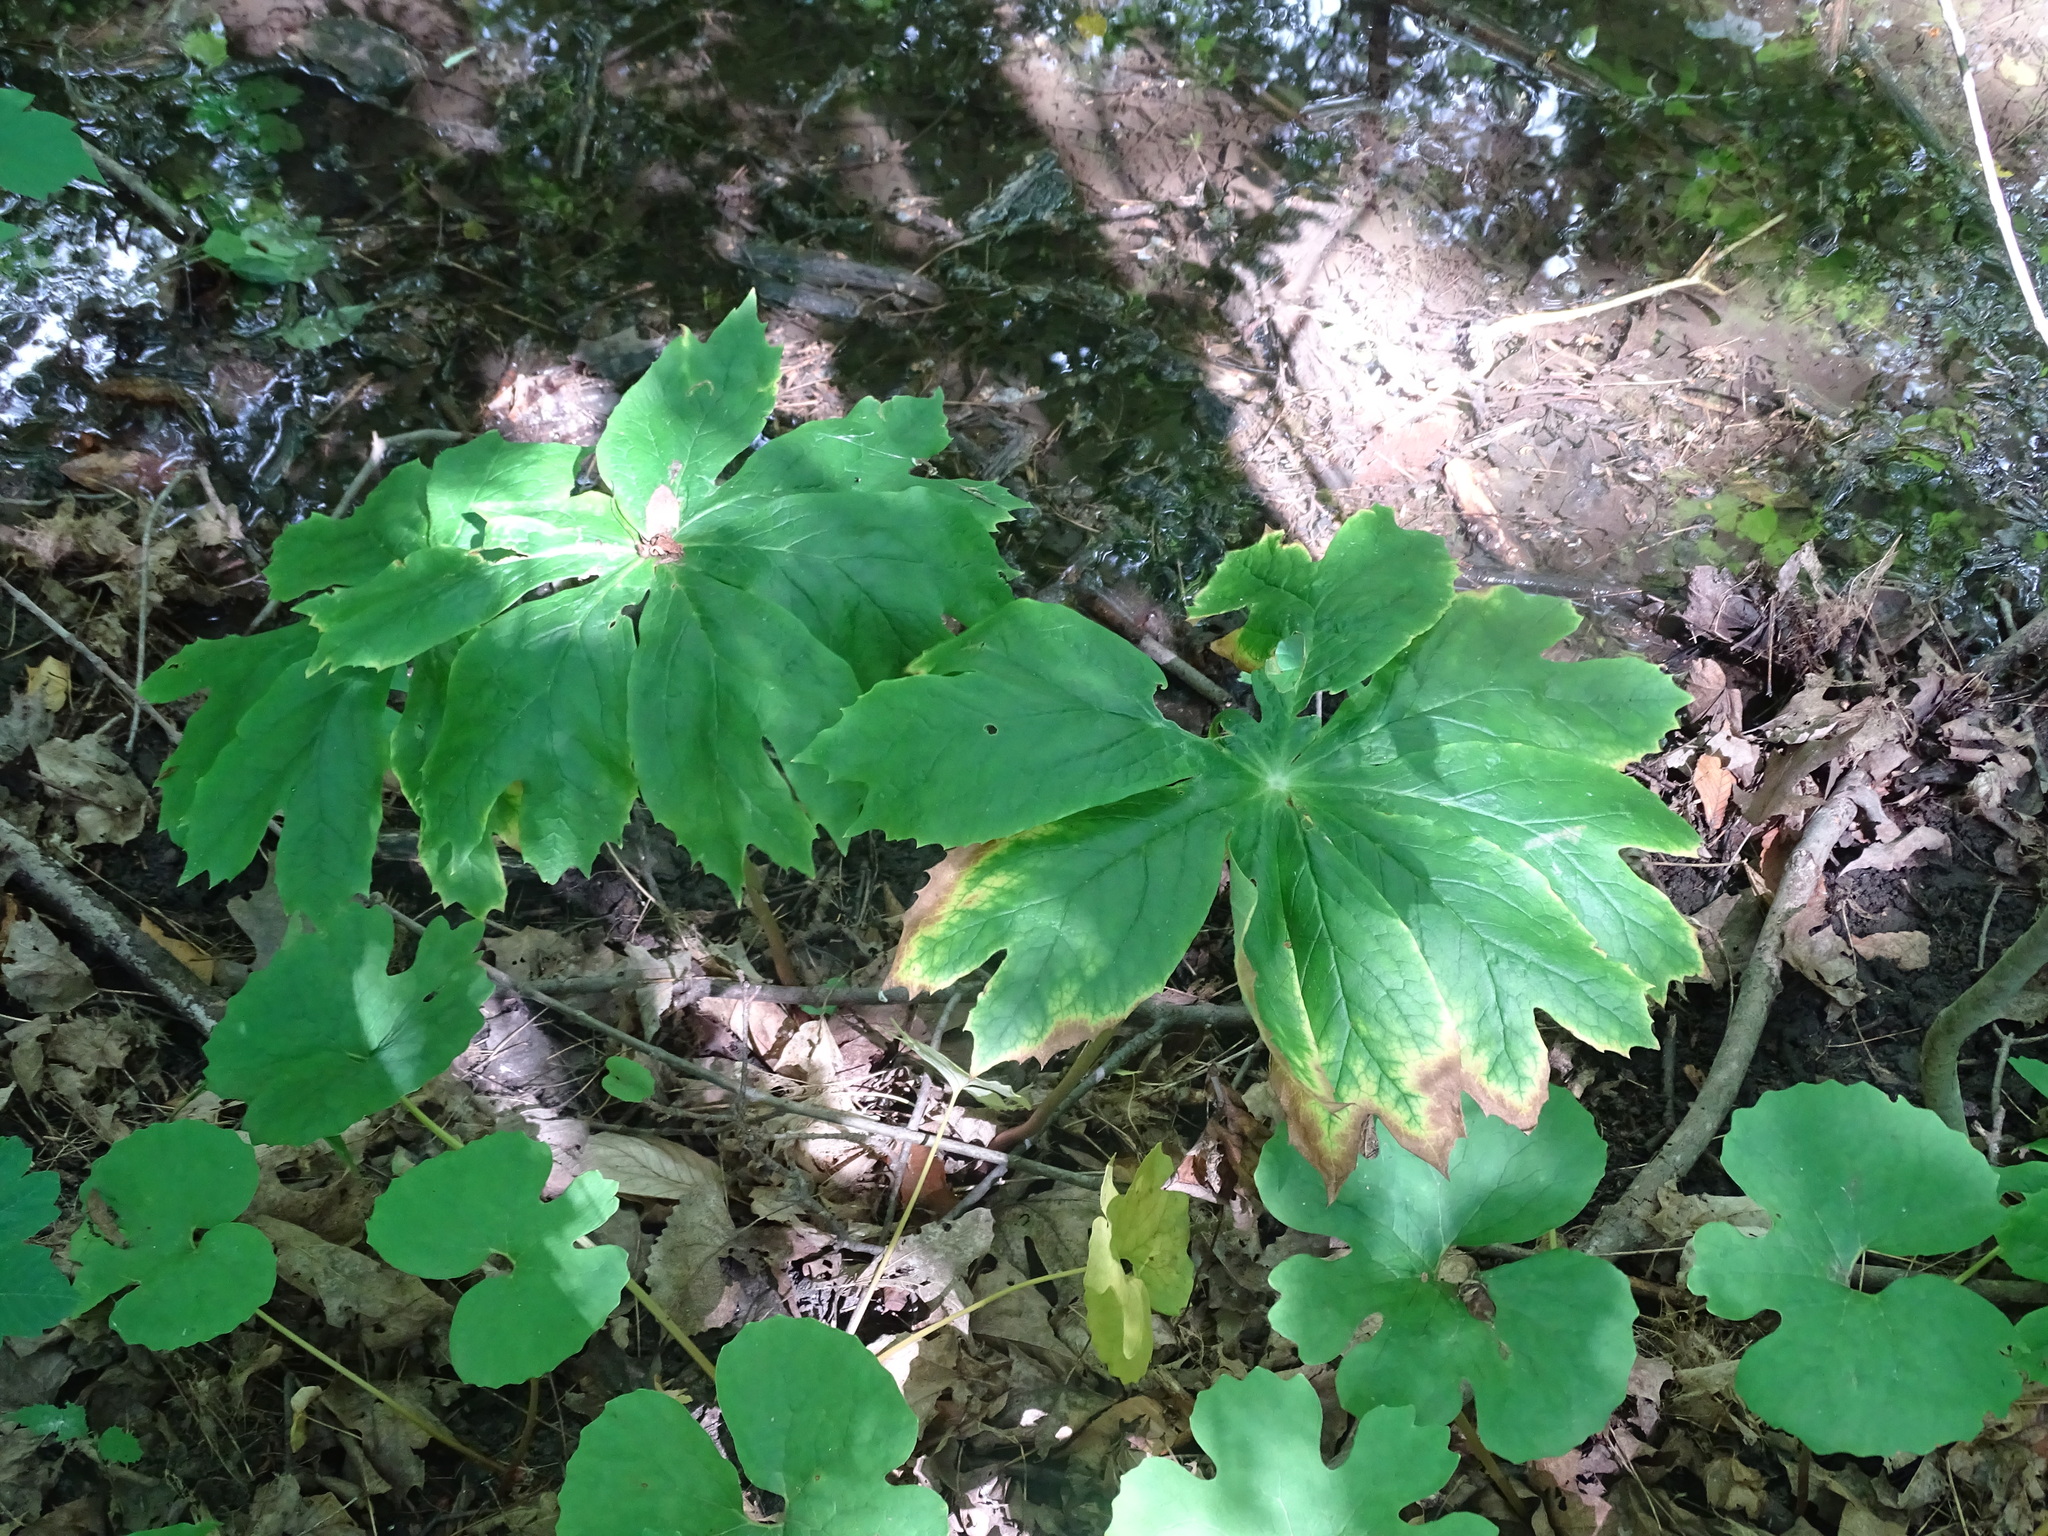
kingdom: Plantae
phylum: Tracheophyta
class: Magnoliopsida
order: Ranunculales
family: Berberidaceae
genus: Podophyllum
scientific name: Podophyllum peltatum
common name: Wild mandrake
